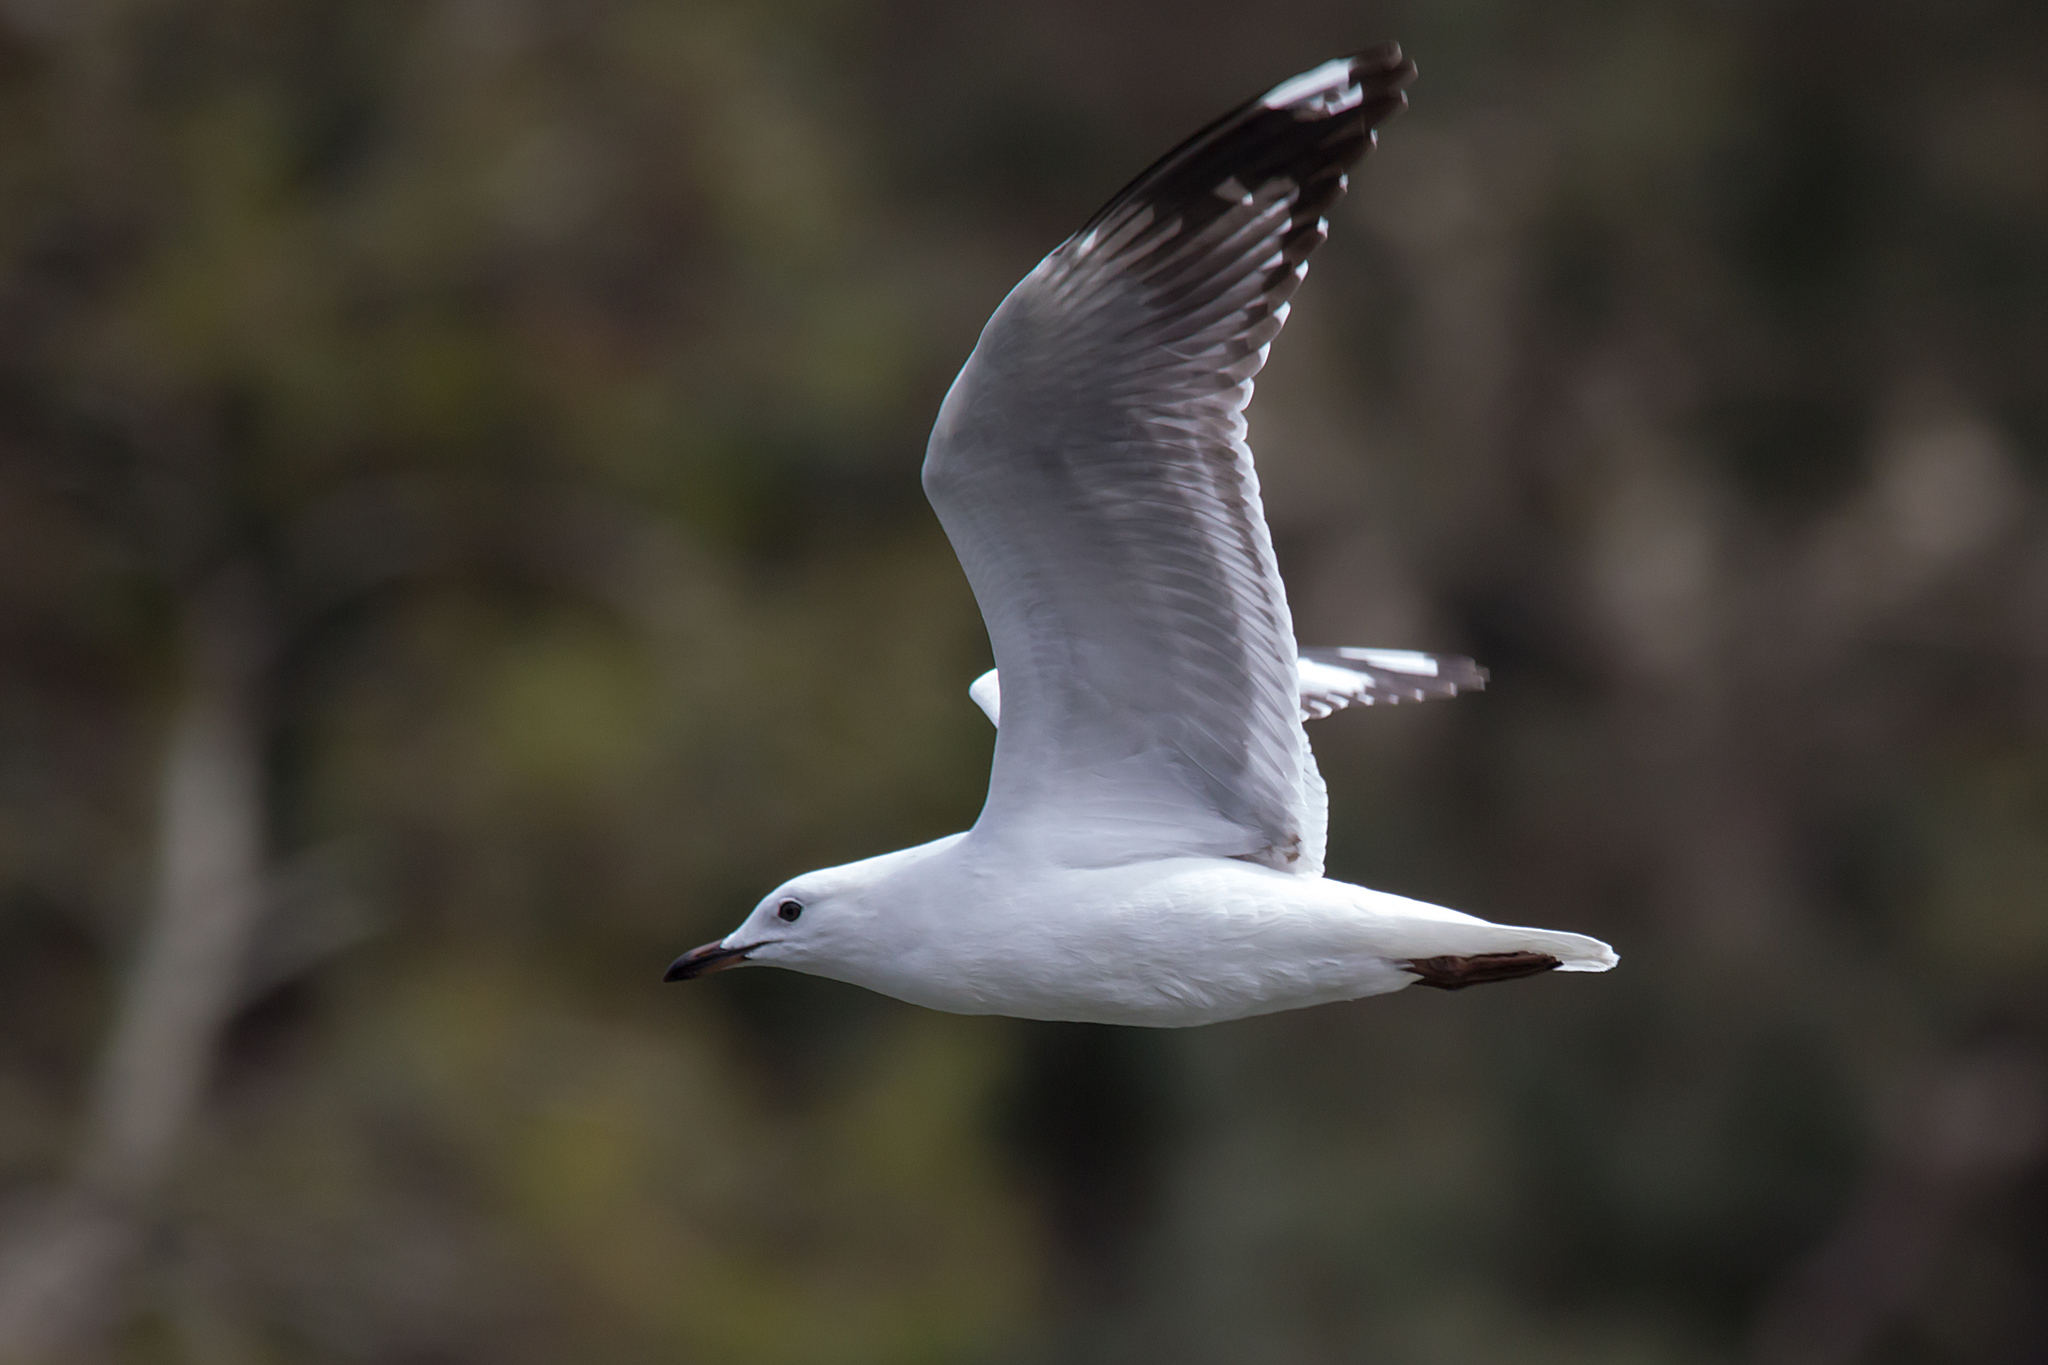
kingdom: Animalia
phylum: Chordata
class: Aves
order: Charadriiformes
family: Laridae
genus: Chroicocephalus
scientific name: Chroicocephalus novaehollandiae
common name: Silver gull
